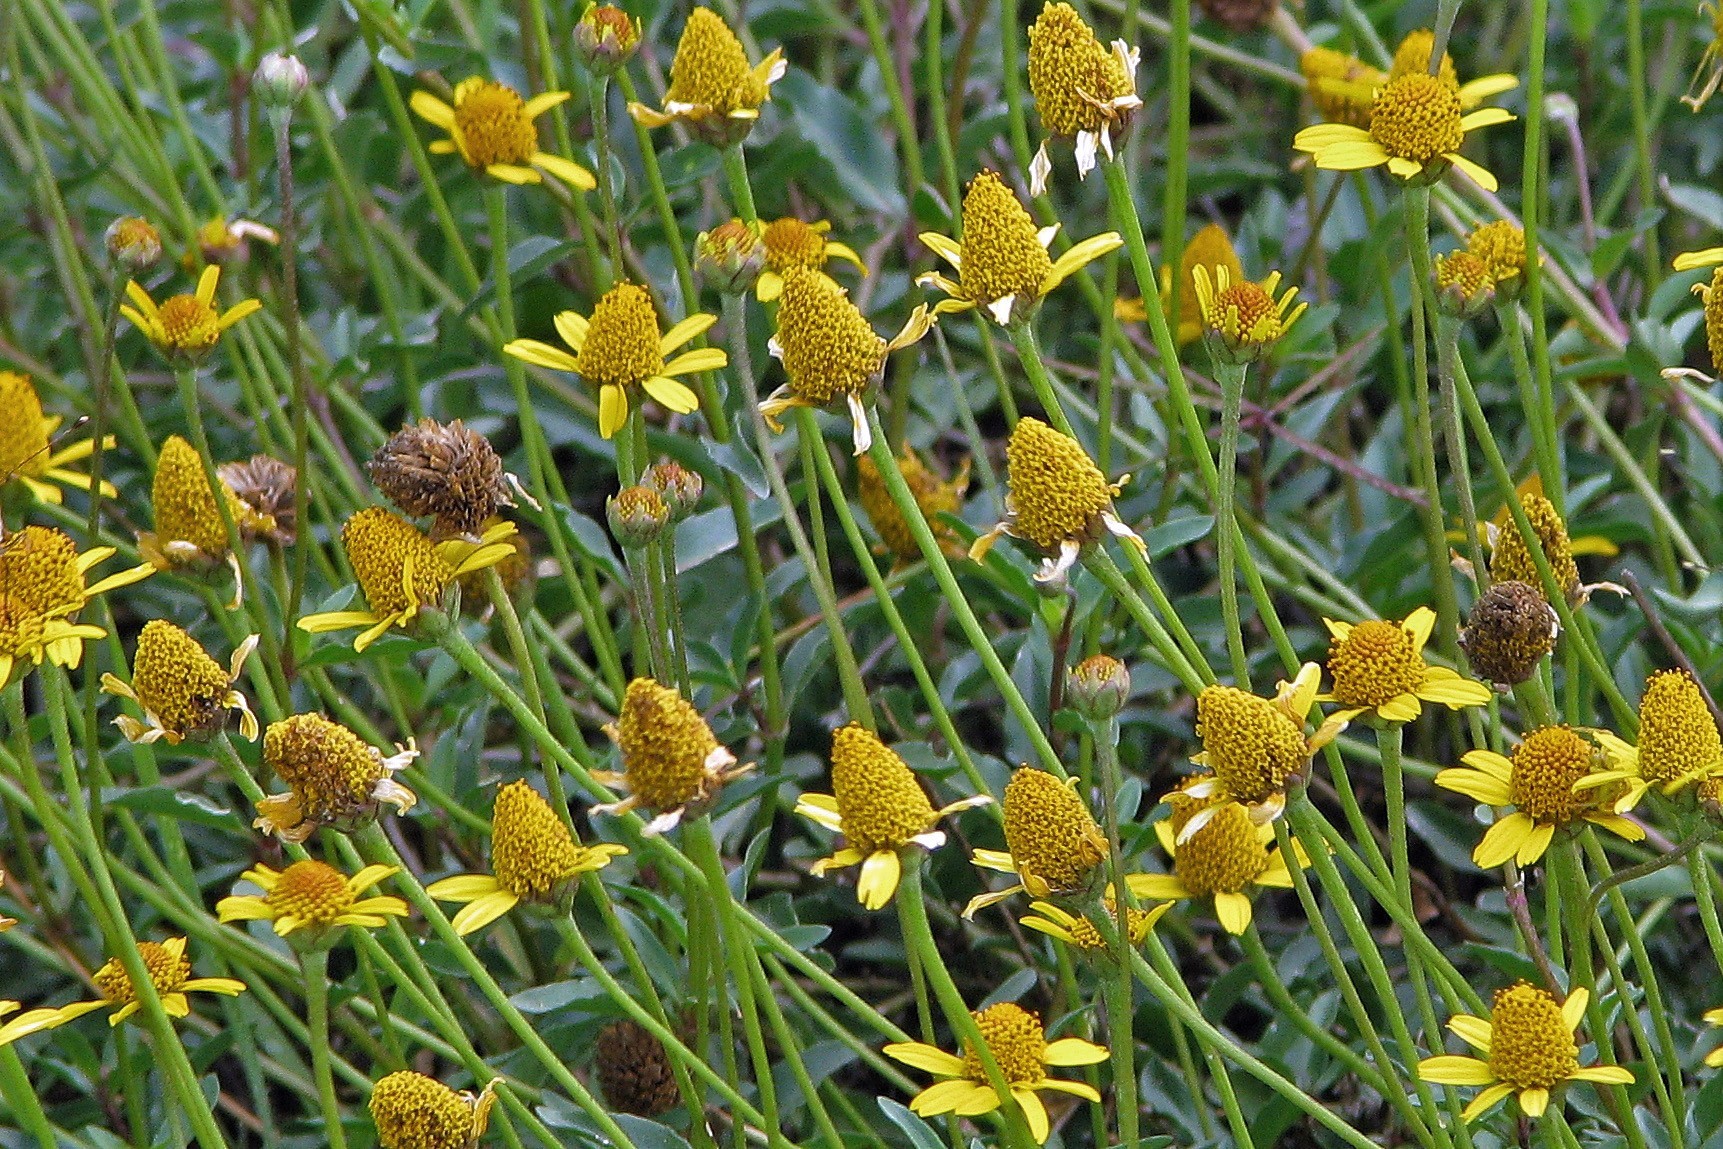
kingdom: Plantae
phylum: Tracheophyta
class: Magnoliopsida
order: Asterales
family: Asteraceae
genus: Acmella
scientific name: Acmella decumbens
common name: Creeping spotflower
